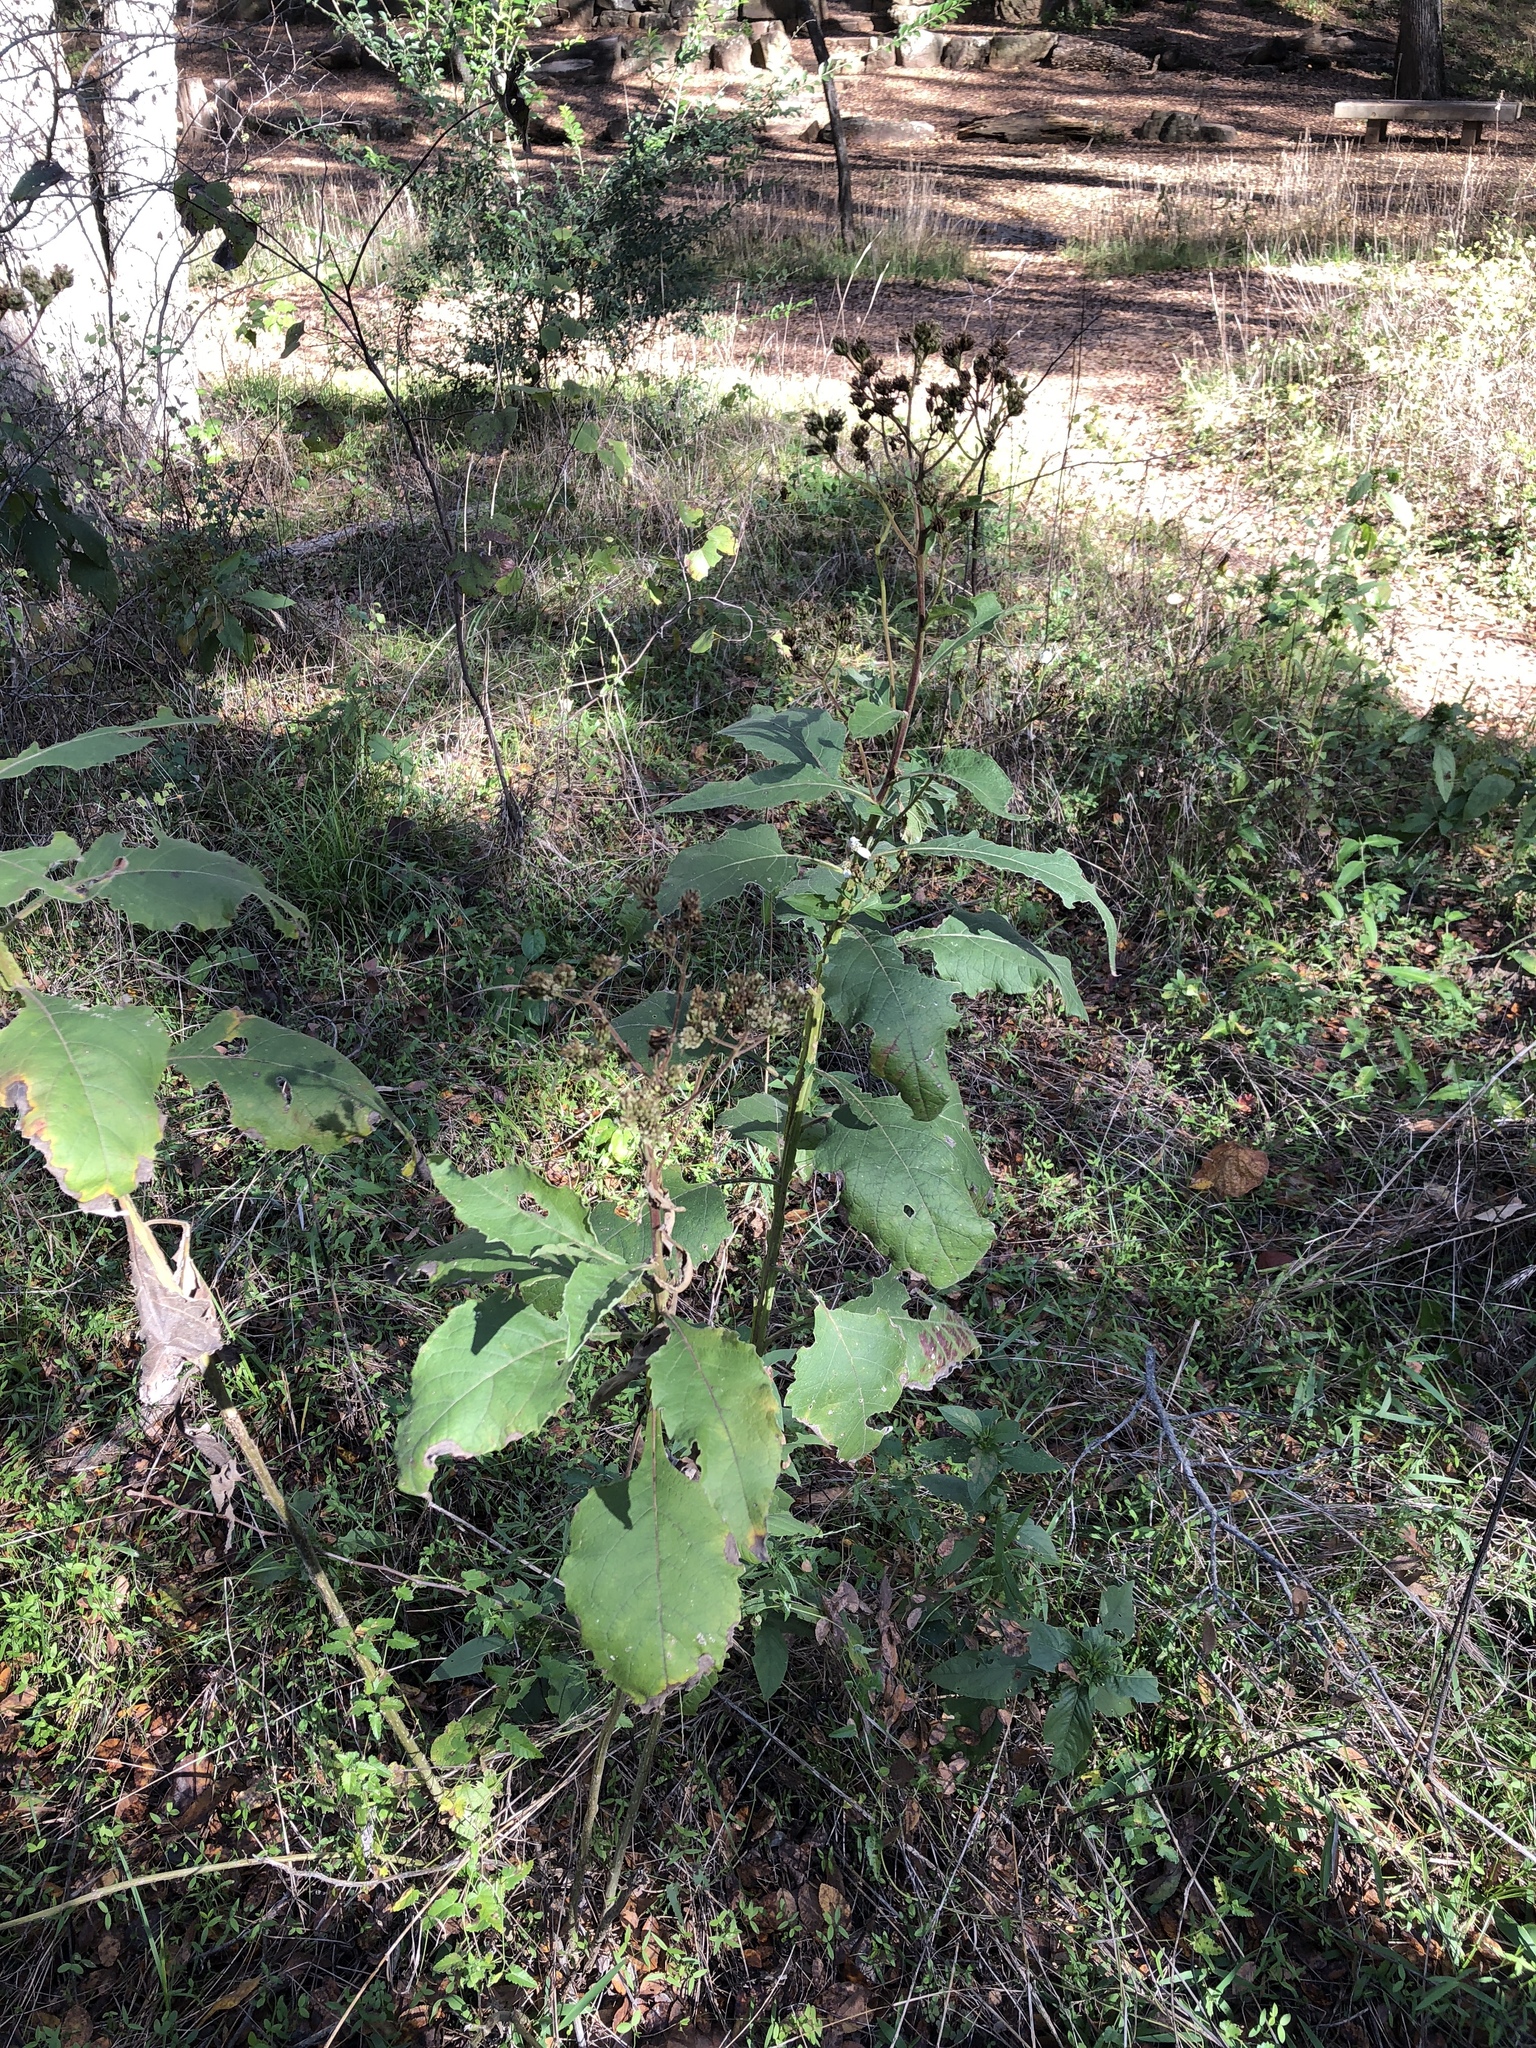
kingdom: Plantae
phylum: Tracheophyta
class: Magnoliopsida
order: Asterales
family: Asteraceae
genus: Verbesina
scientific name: Verbesina virginica
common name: Frostweed
